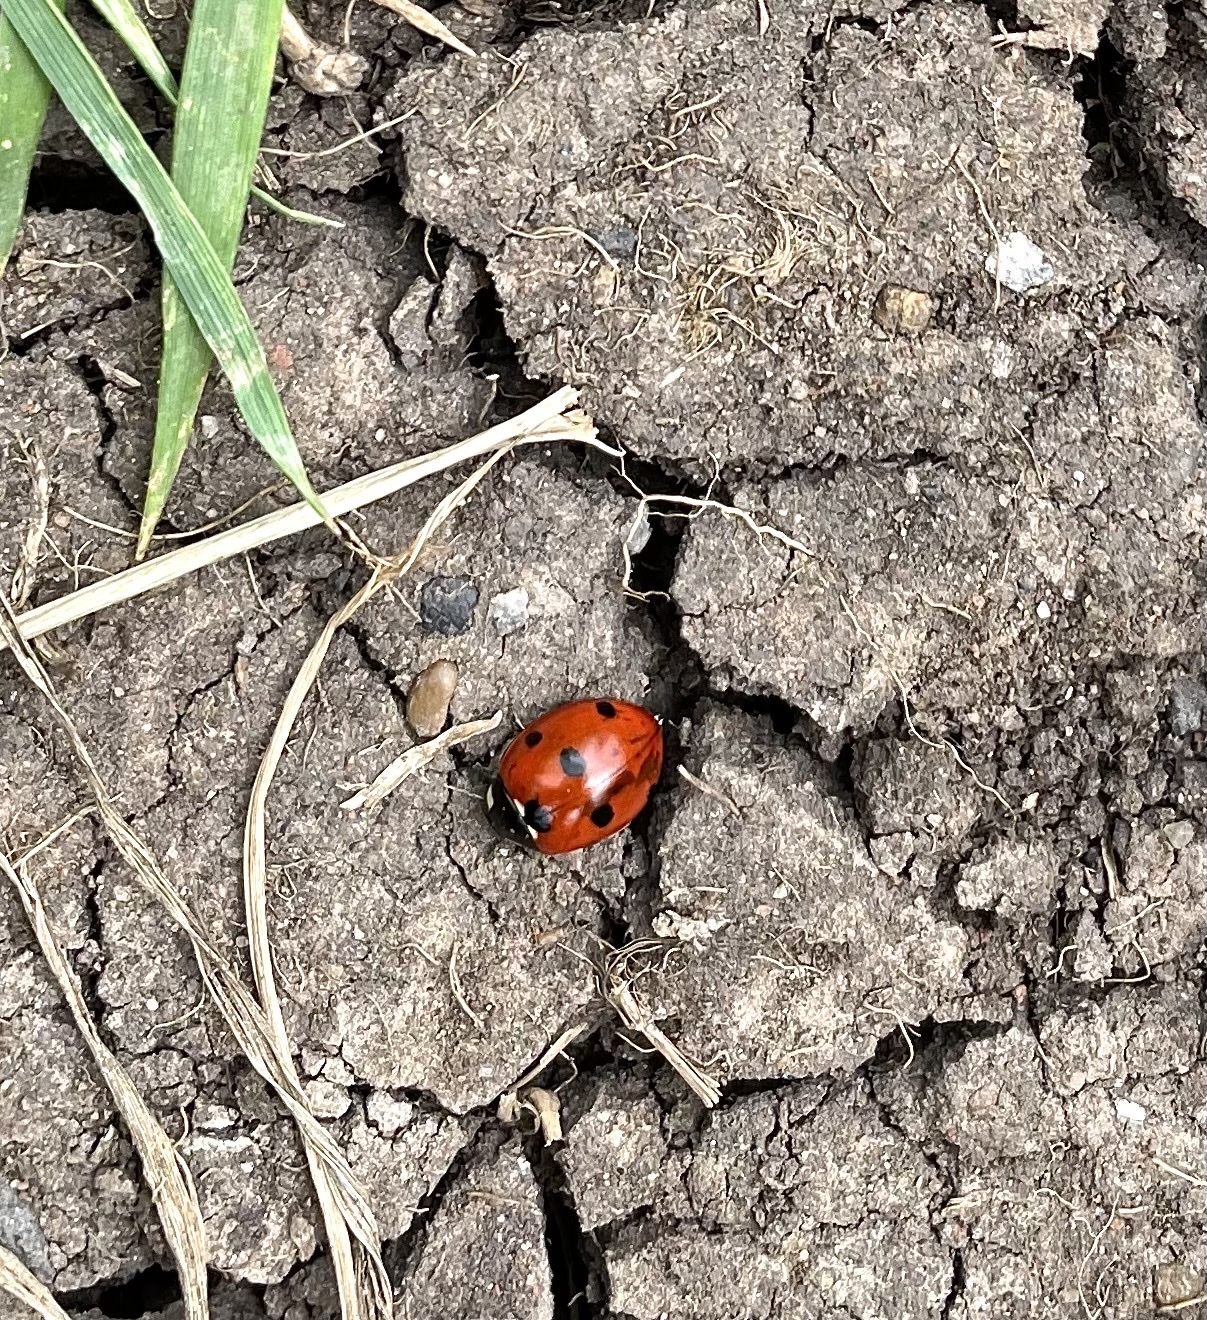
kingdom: Animalia
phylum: Arthropoda
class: Insecta
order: Coleoptera
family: Coccinellidae
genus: Coccinella
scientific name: Coccinella septempunctata
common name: Sevenspotted lady beetle
